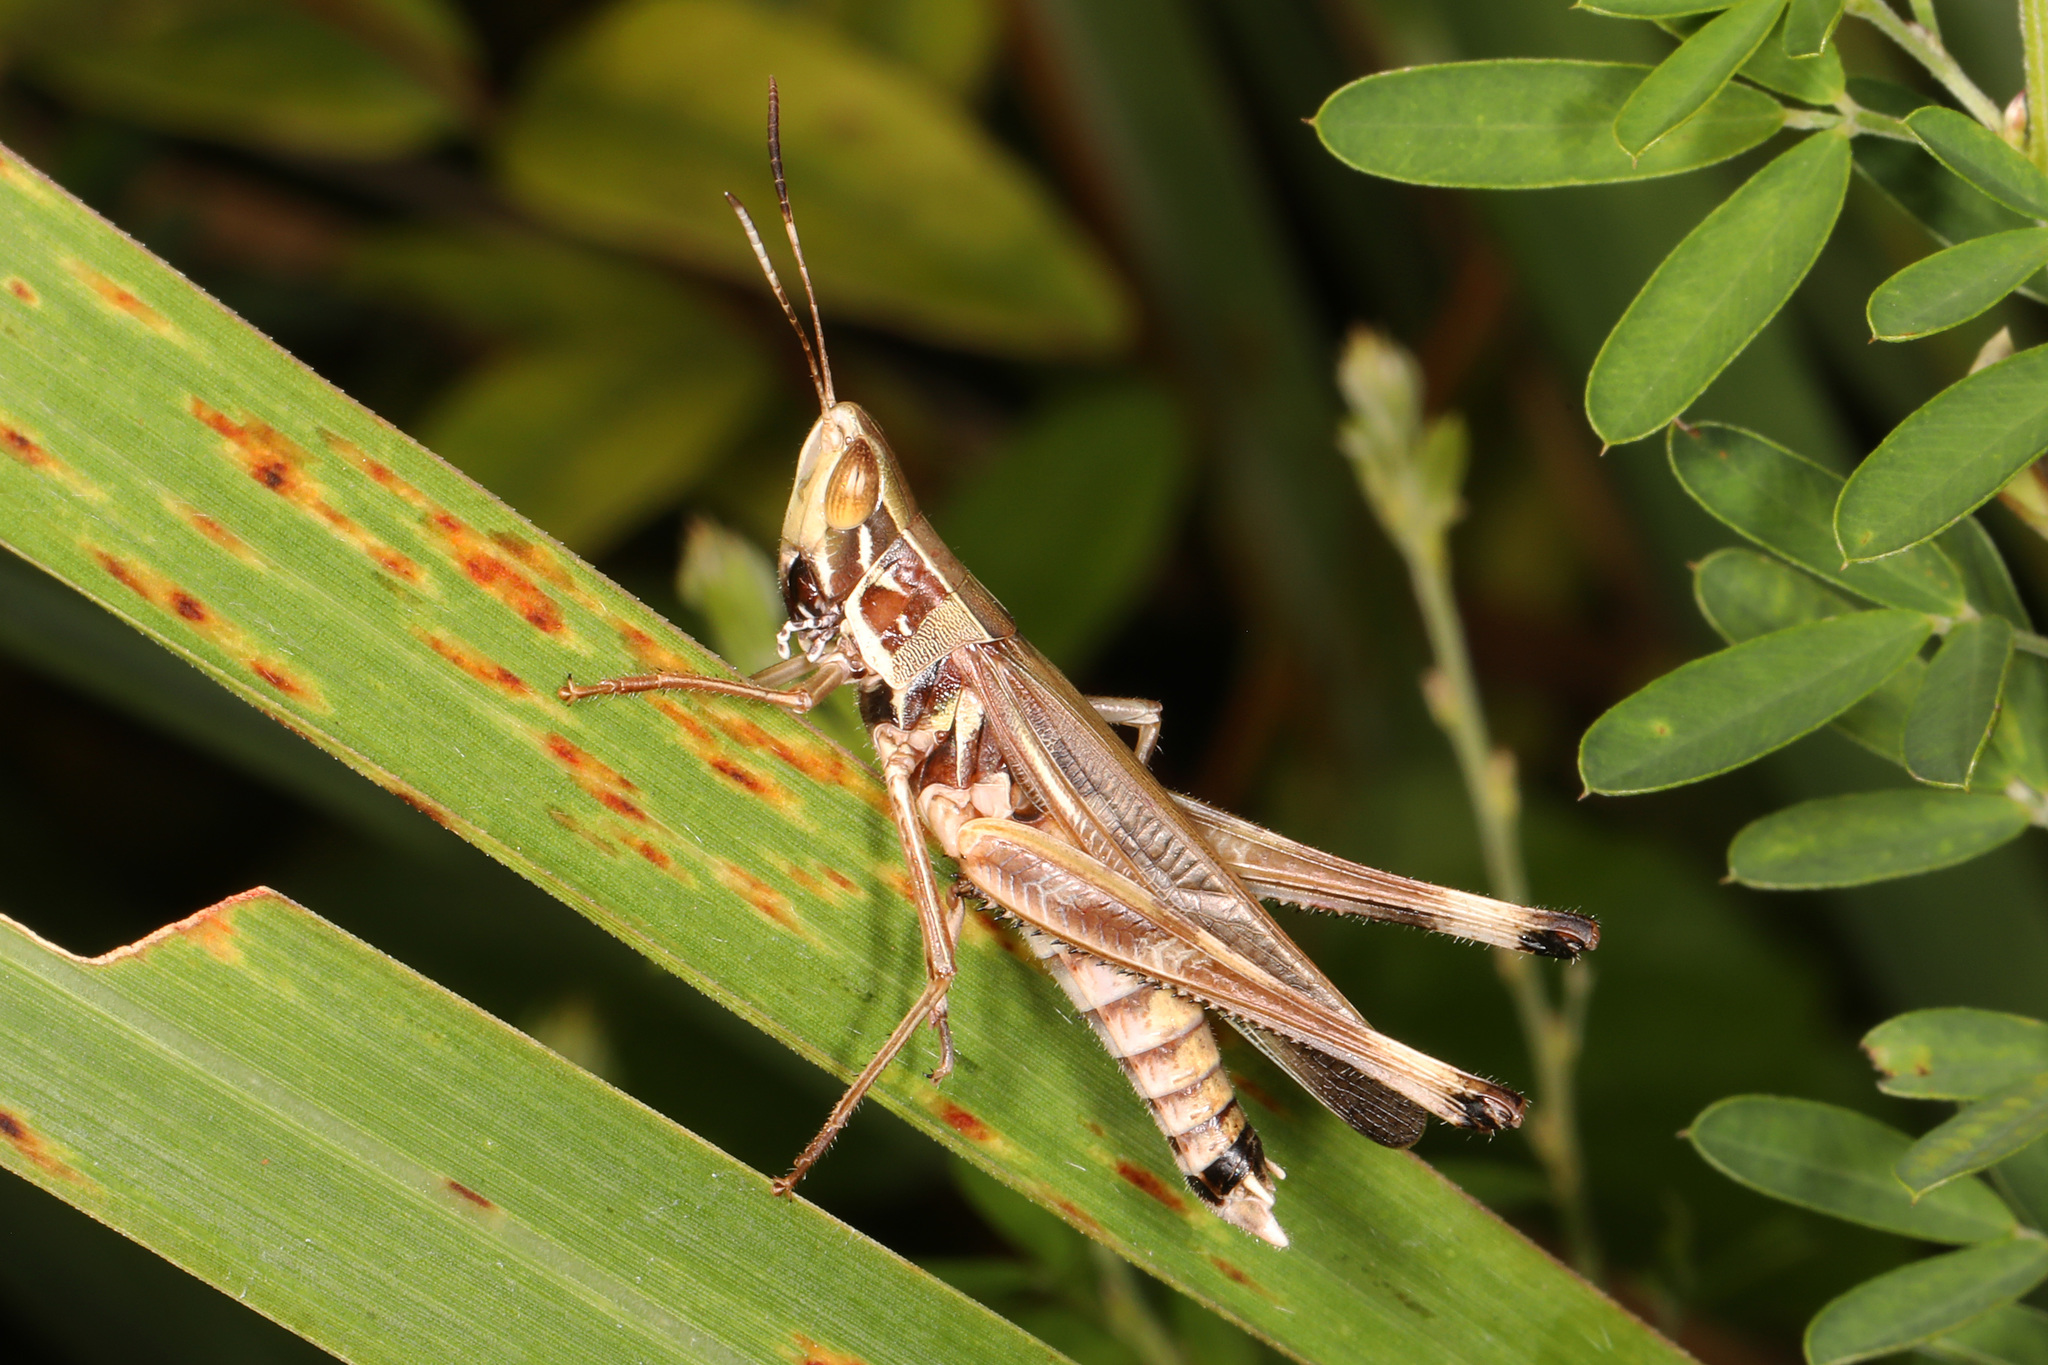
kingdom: Animalia
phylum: Arthropoda
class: Insecta
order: Orthoptera
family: Acrididae
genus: Syrbula
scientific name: Syrbula admirabilis
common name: Handsome grasshopper
